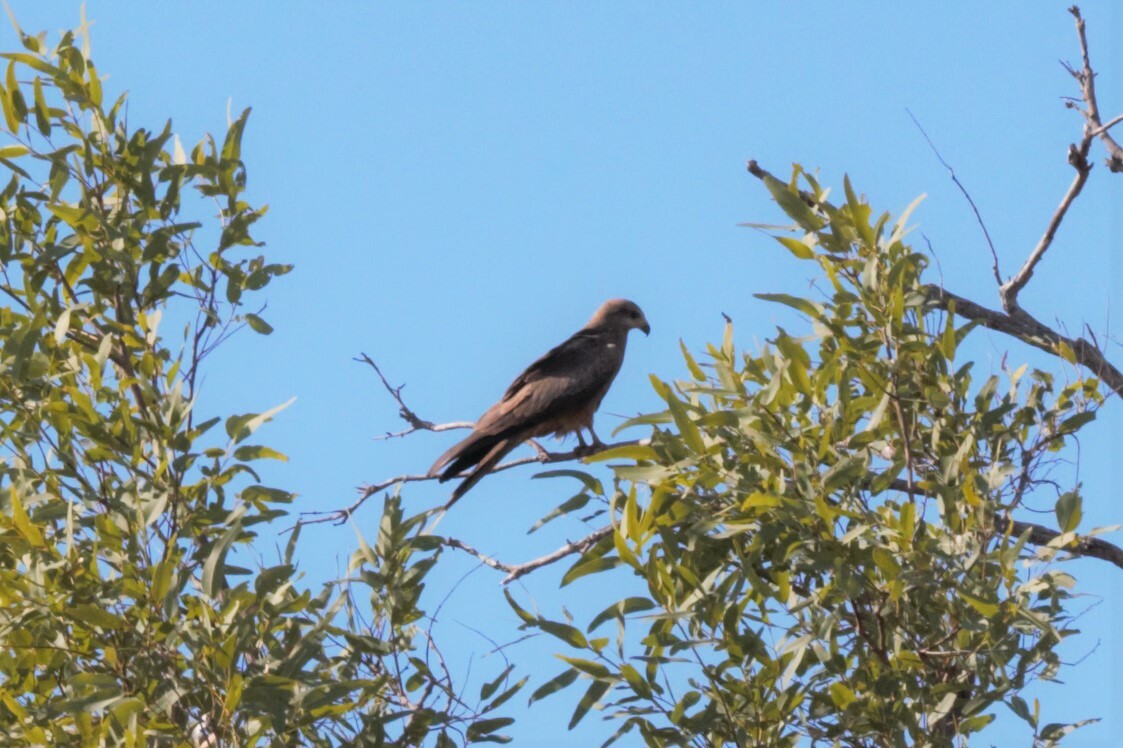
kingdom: Animalia
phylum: Chordata
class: Aves
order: Accipitriformes
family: Accipitridae
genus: Milvus
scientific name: Milvus migrans
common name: Black kite
